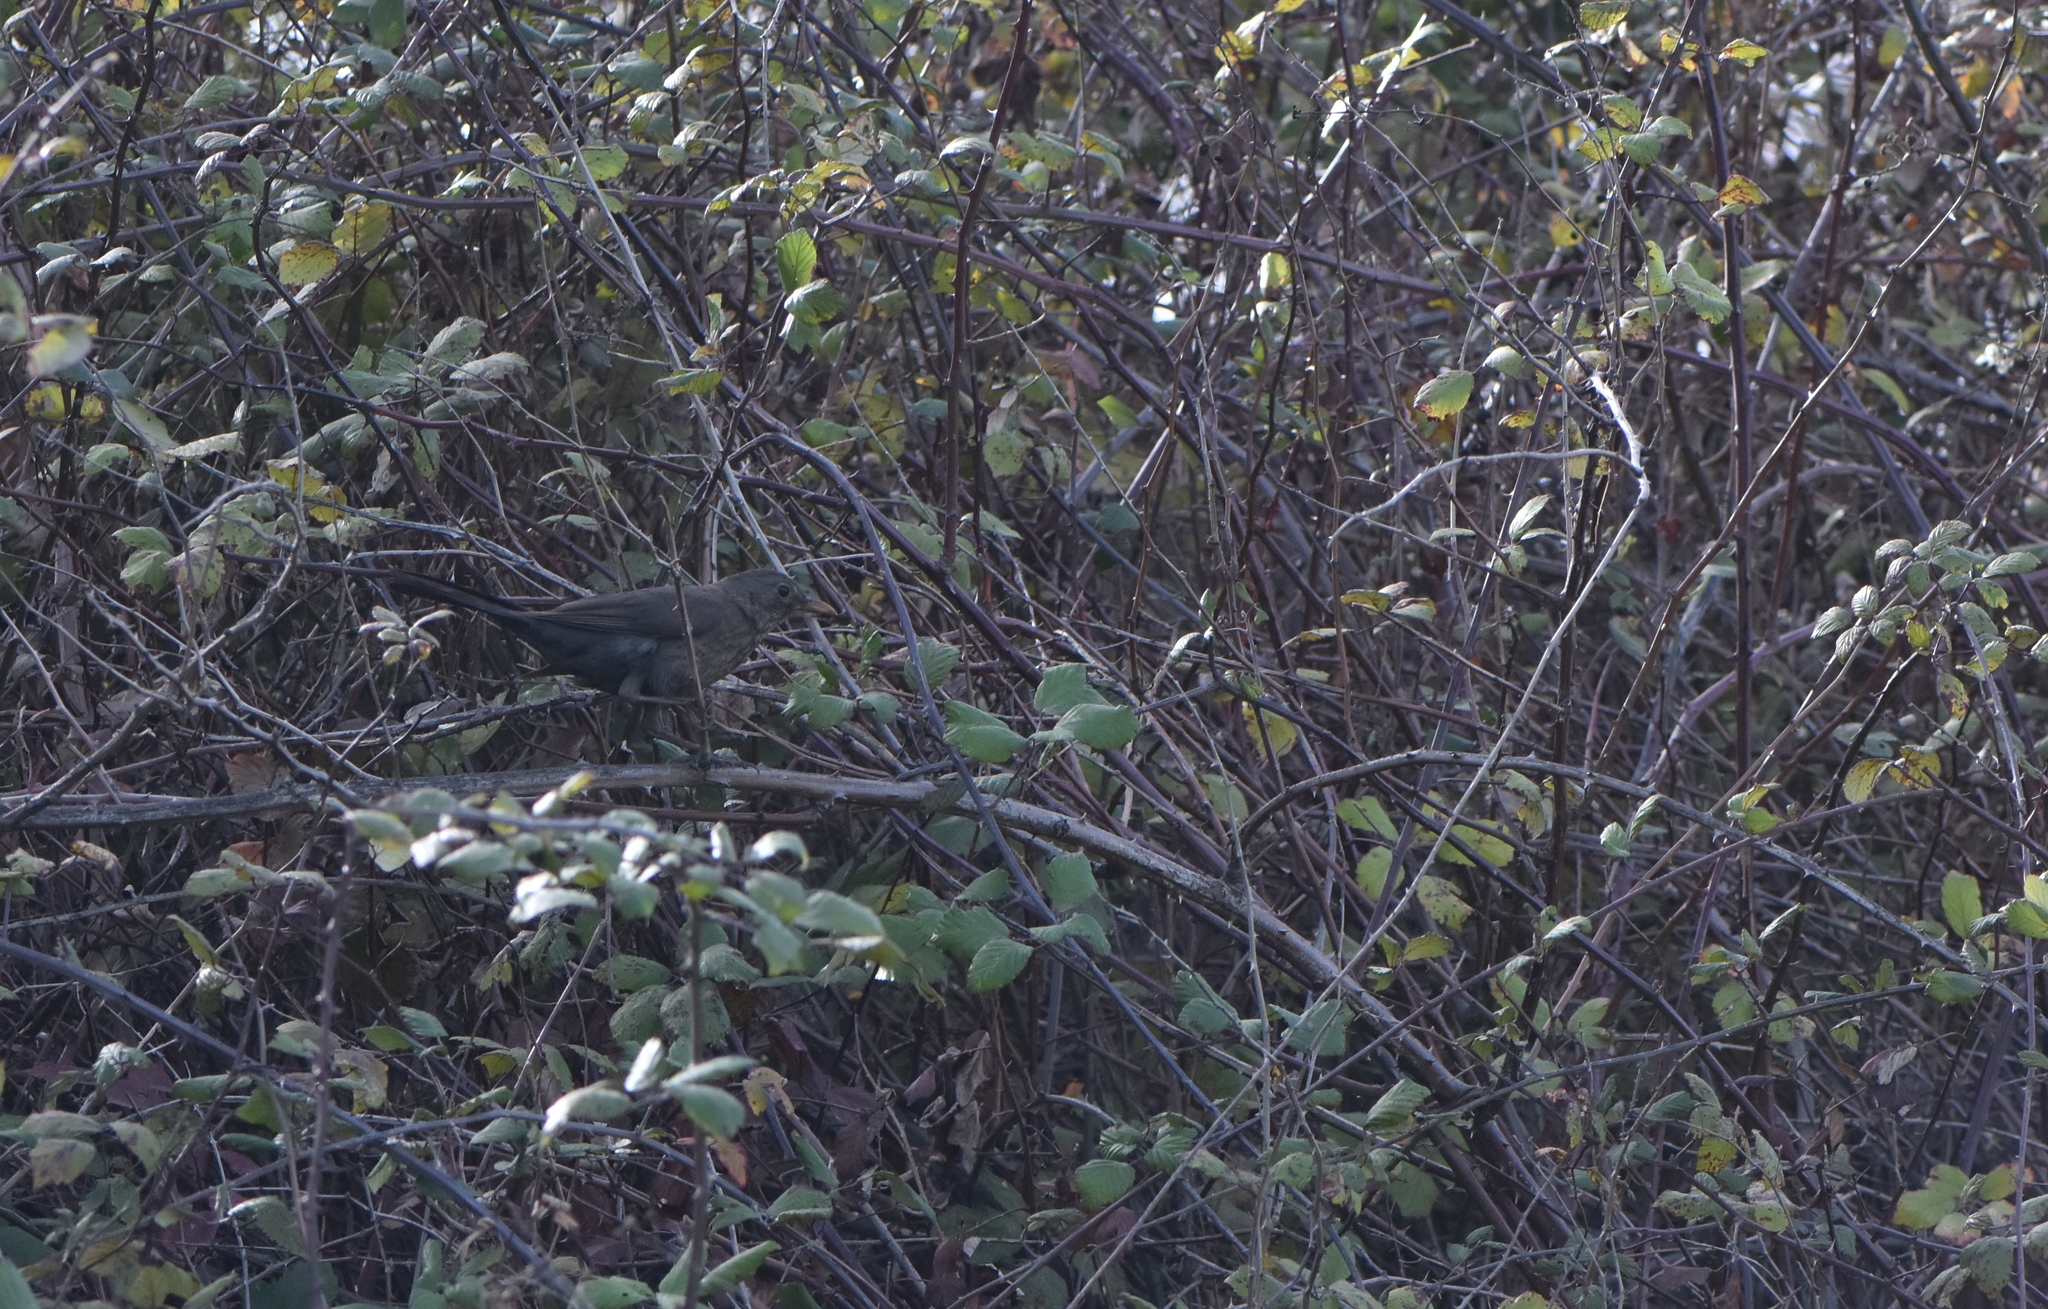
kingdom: Animalia
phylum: Chordata
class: Aves
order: Passeriformes
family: Turdidae
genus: Turdus
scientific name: Turdus merula
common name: Common blackbird
